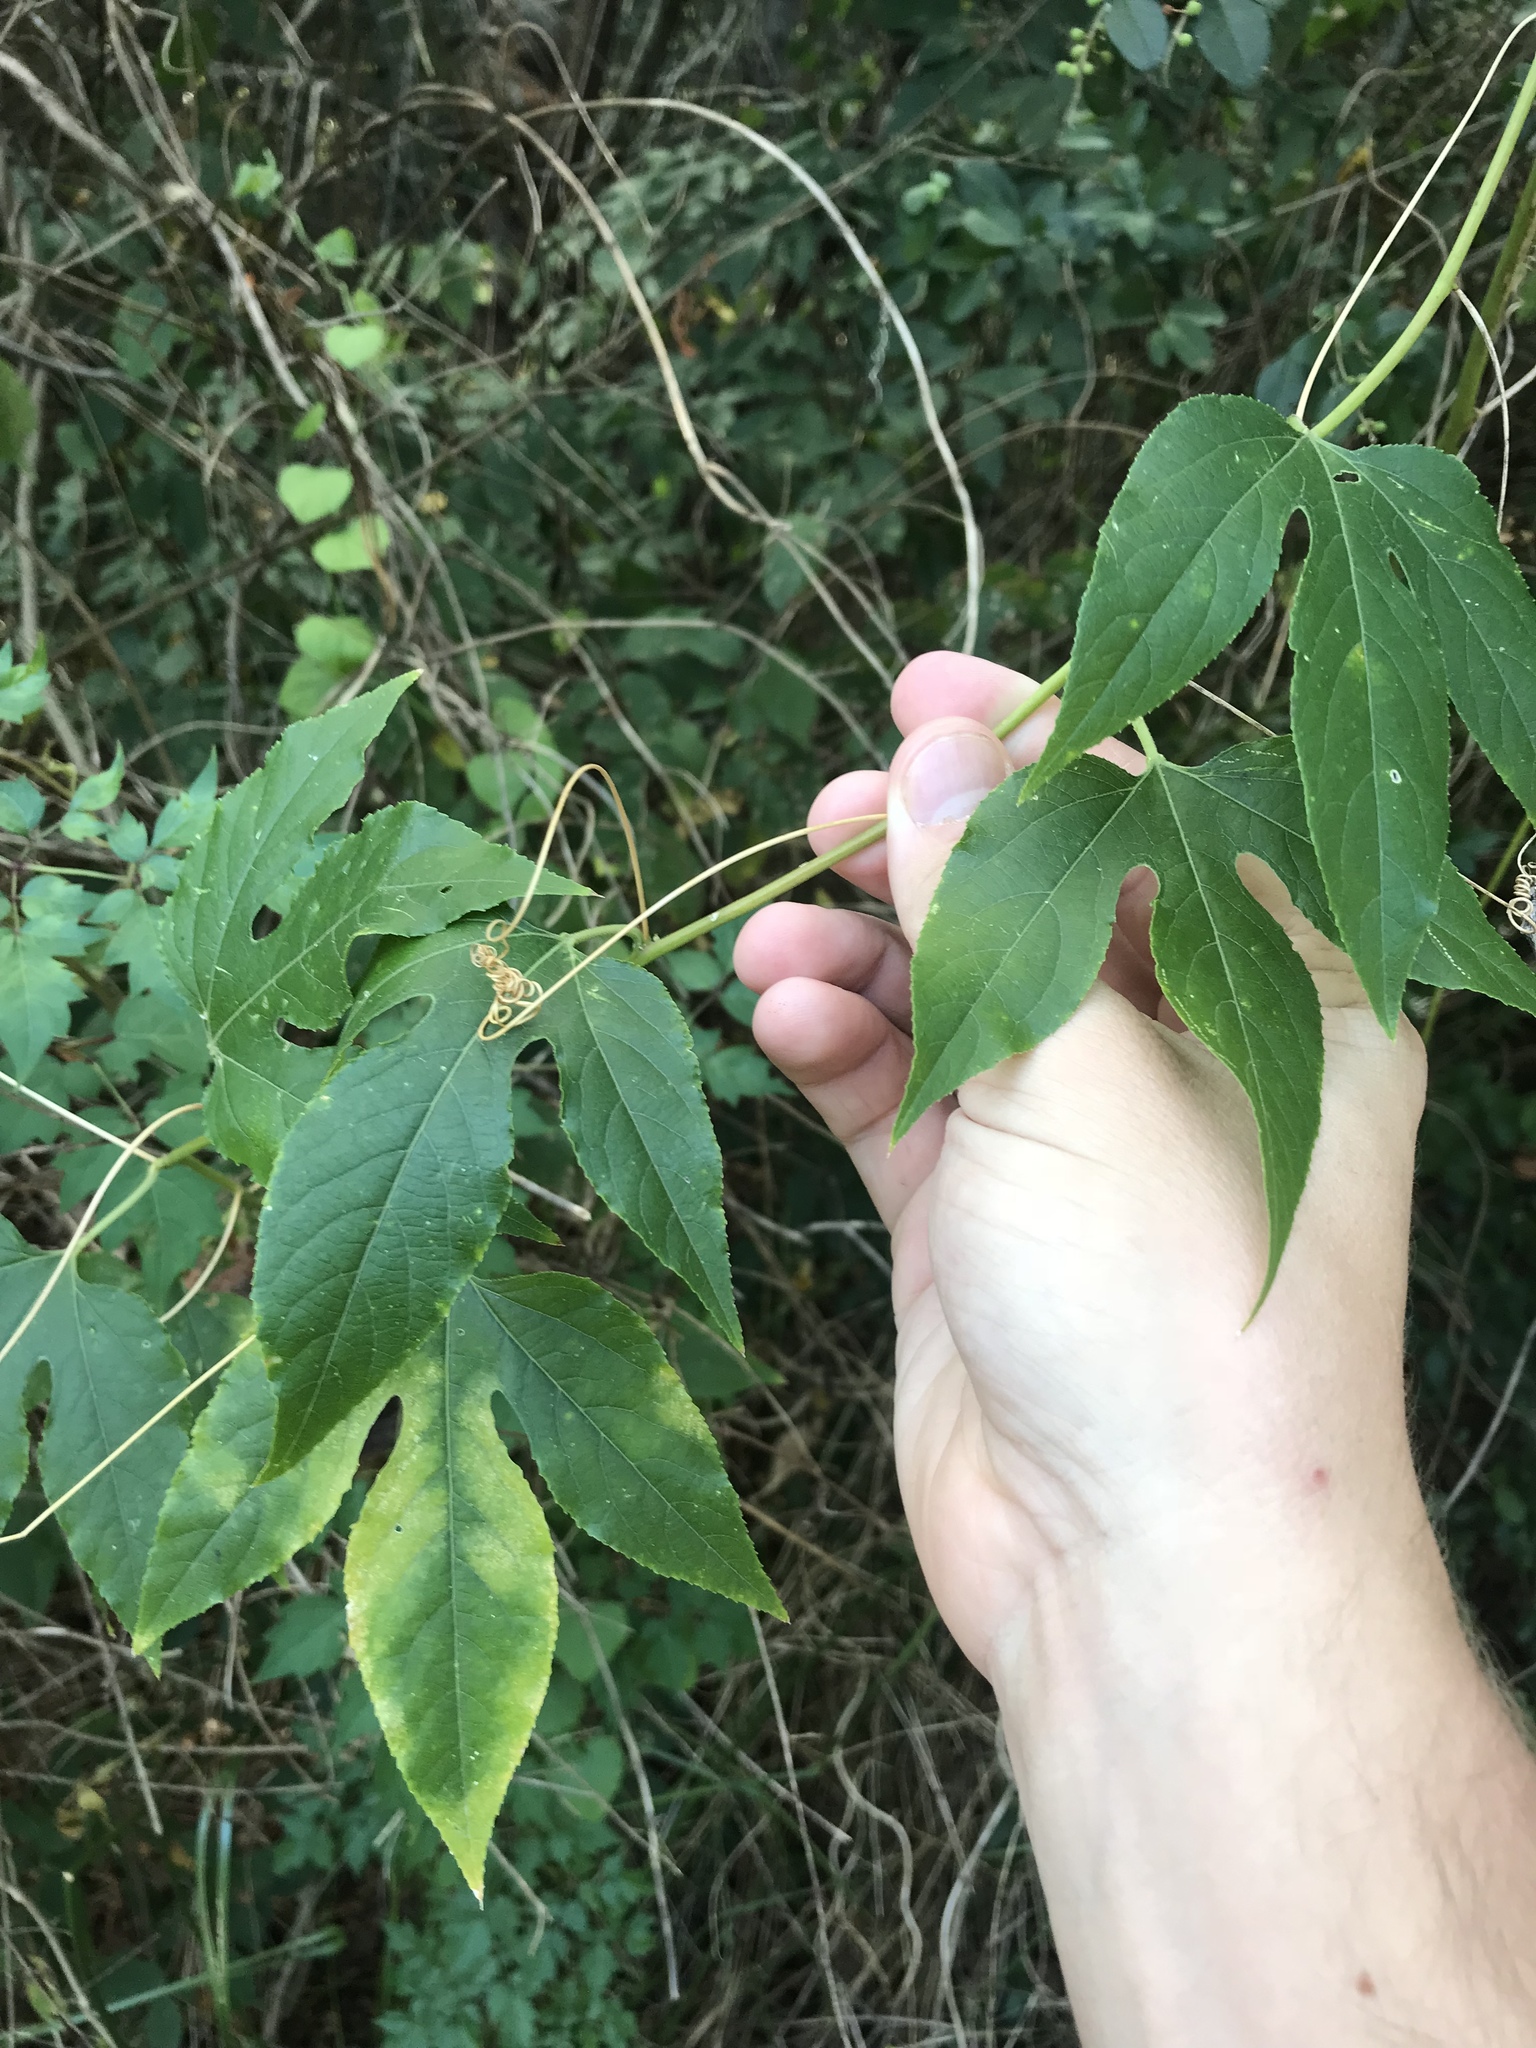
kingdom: Plantae
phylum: Tracheophyta
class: Magnoliopsida
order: Malpighiales
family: Passifloraceae
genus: Passiflora
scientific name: Passiflora incarnata
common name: Apricot-vine
